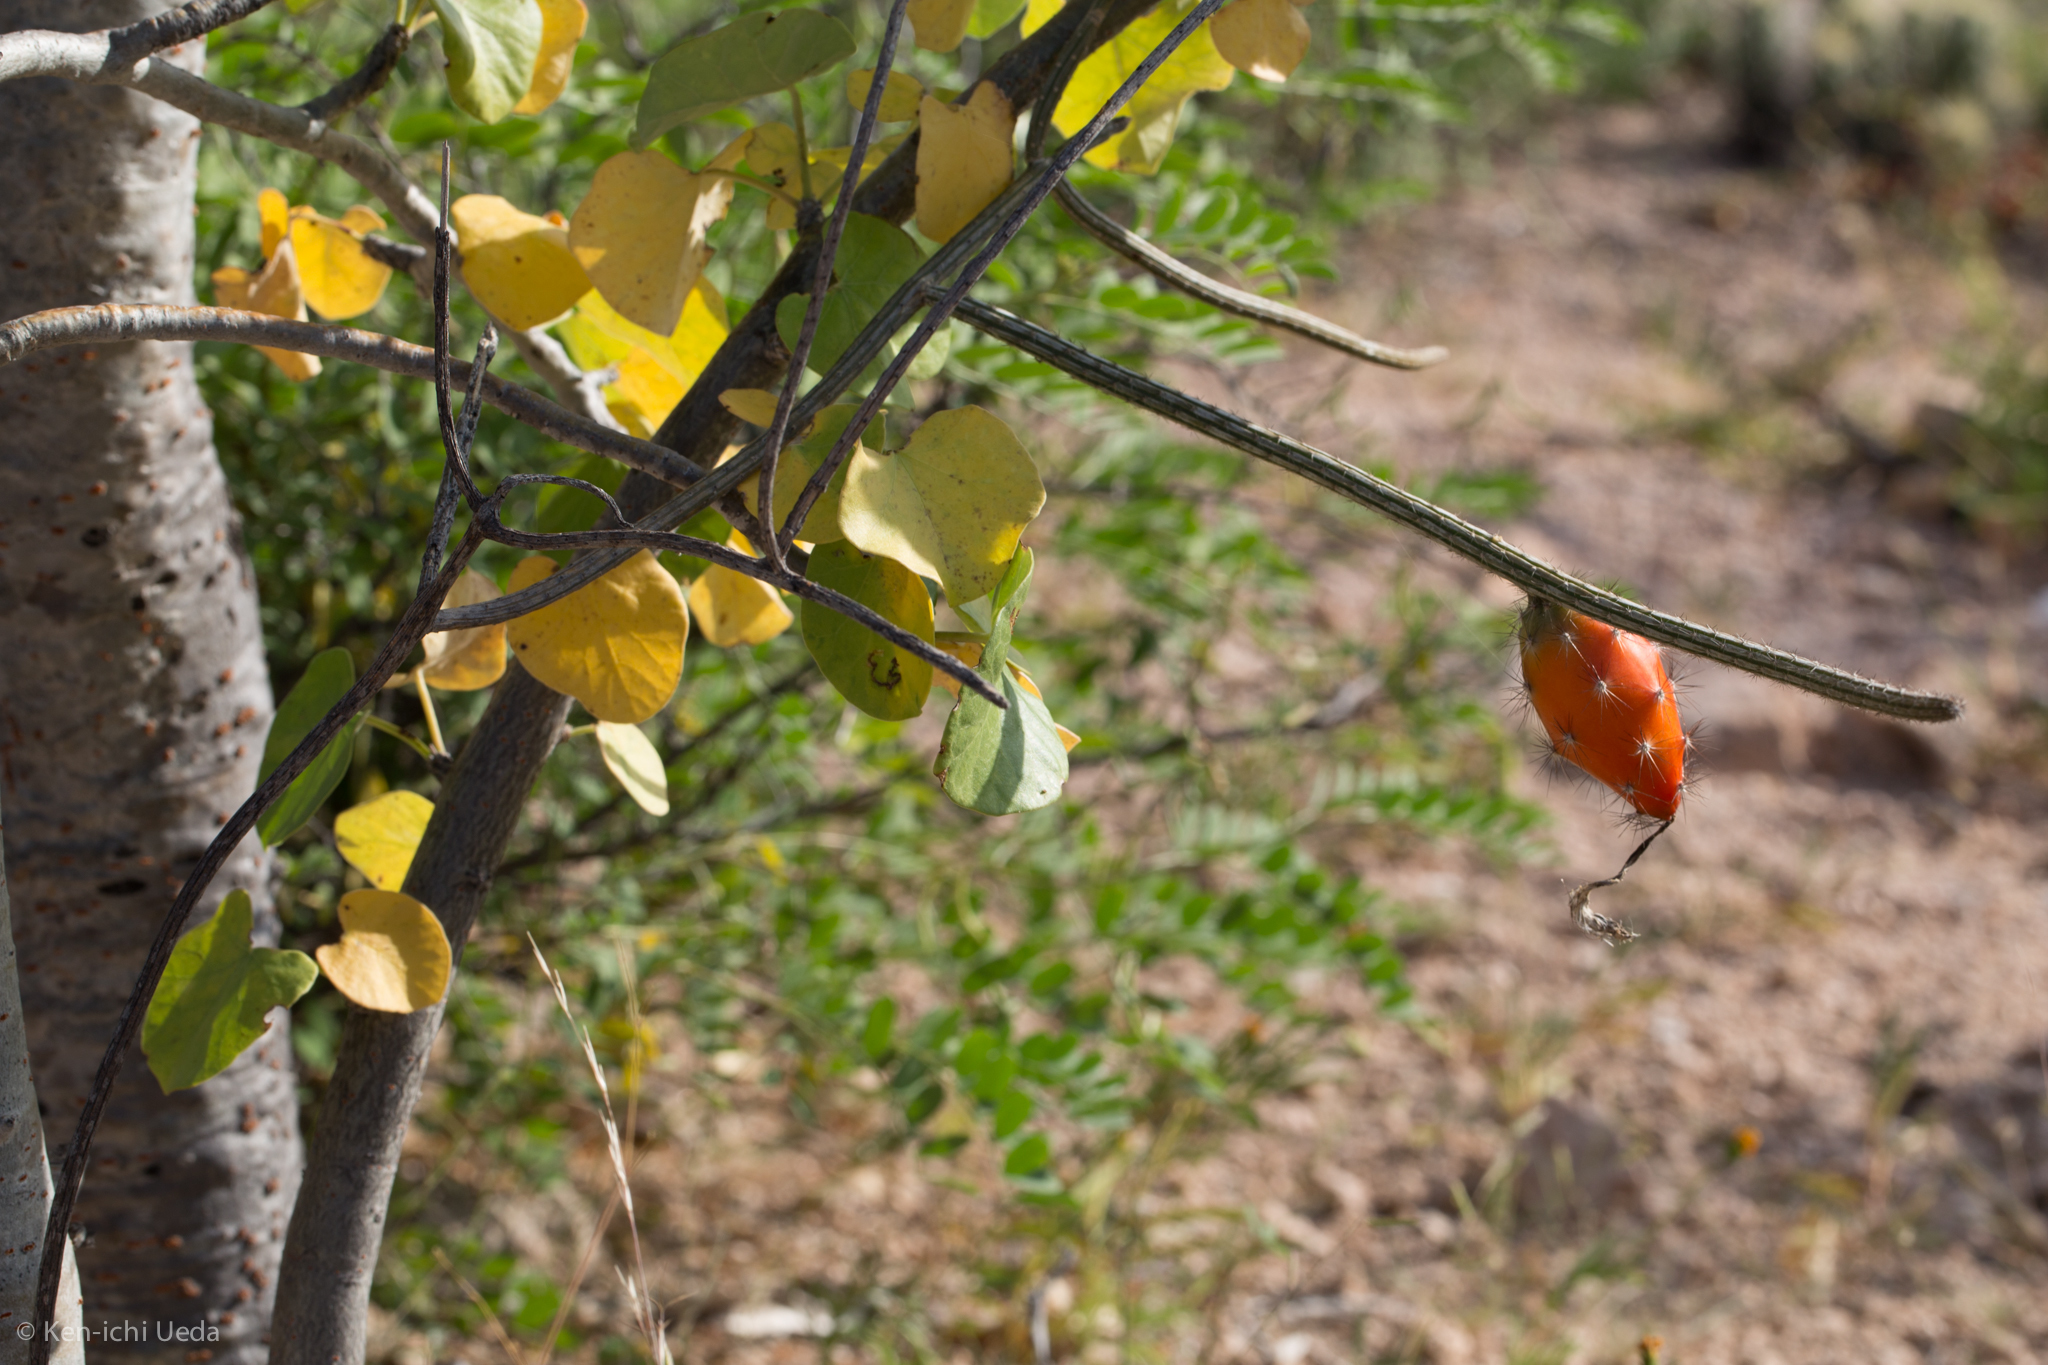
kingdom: Plantae
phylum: Tracheophyta
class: Magnoliopsida
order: Caryophyllales
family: Cactaceae
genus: Peniocereus
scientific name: Peniocereus striatus
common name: Gearstem cactus
